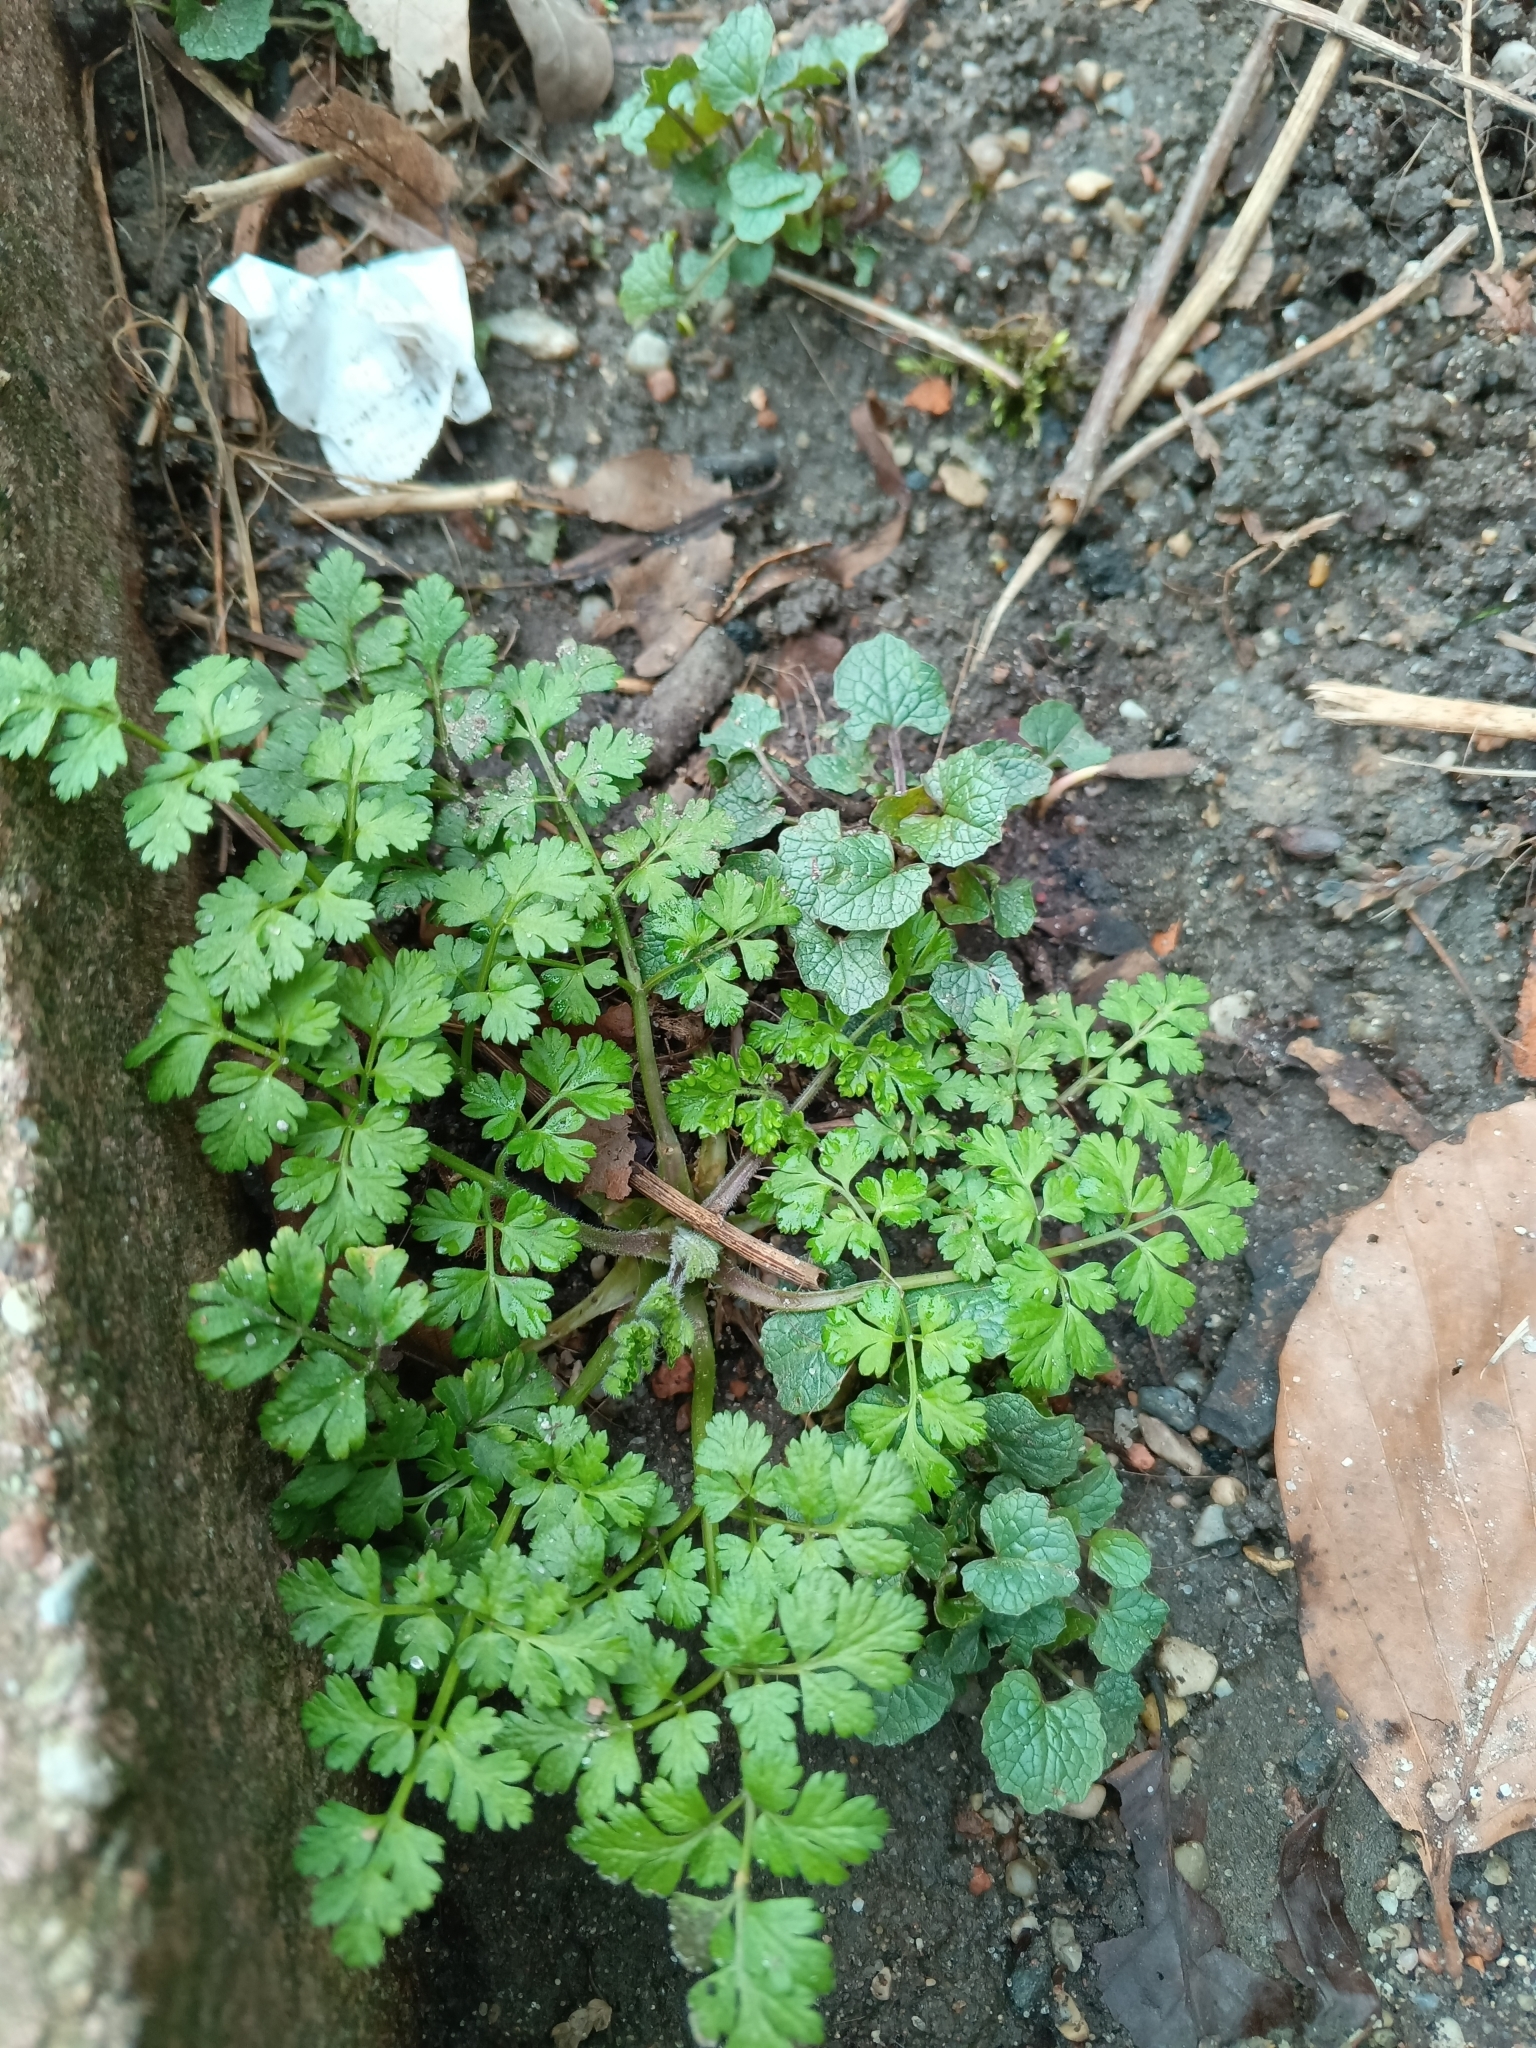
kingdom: Plantae
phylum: Tracheophyta
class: Magnoliopsida
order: Apiales
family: Apiaceae
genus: Chaerophyllum
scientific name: Chaerophyllum temulum
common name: Rough chervil
